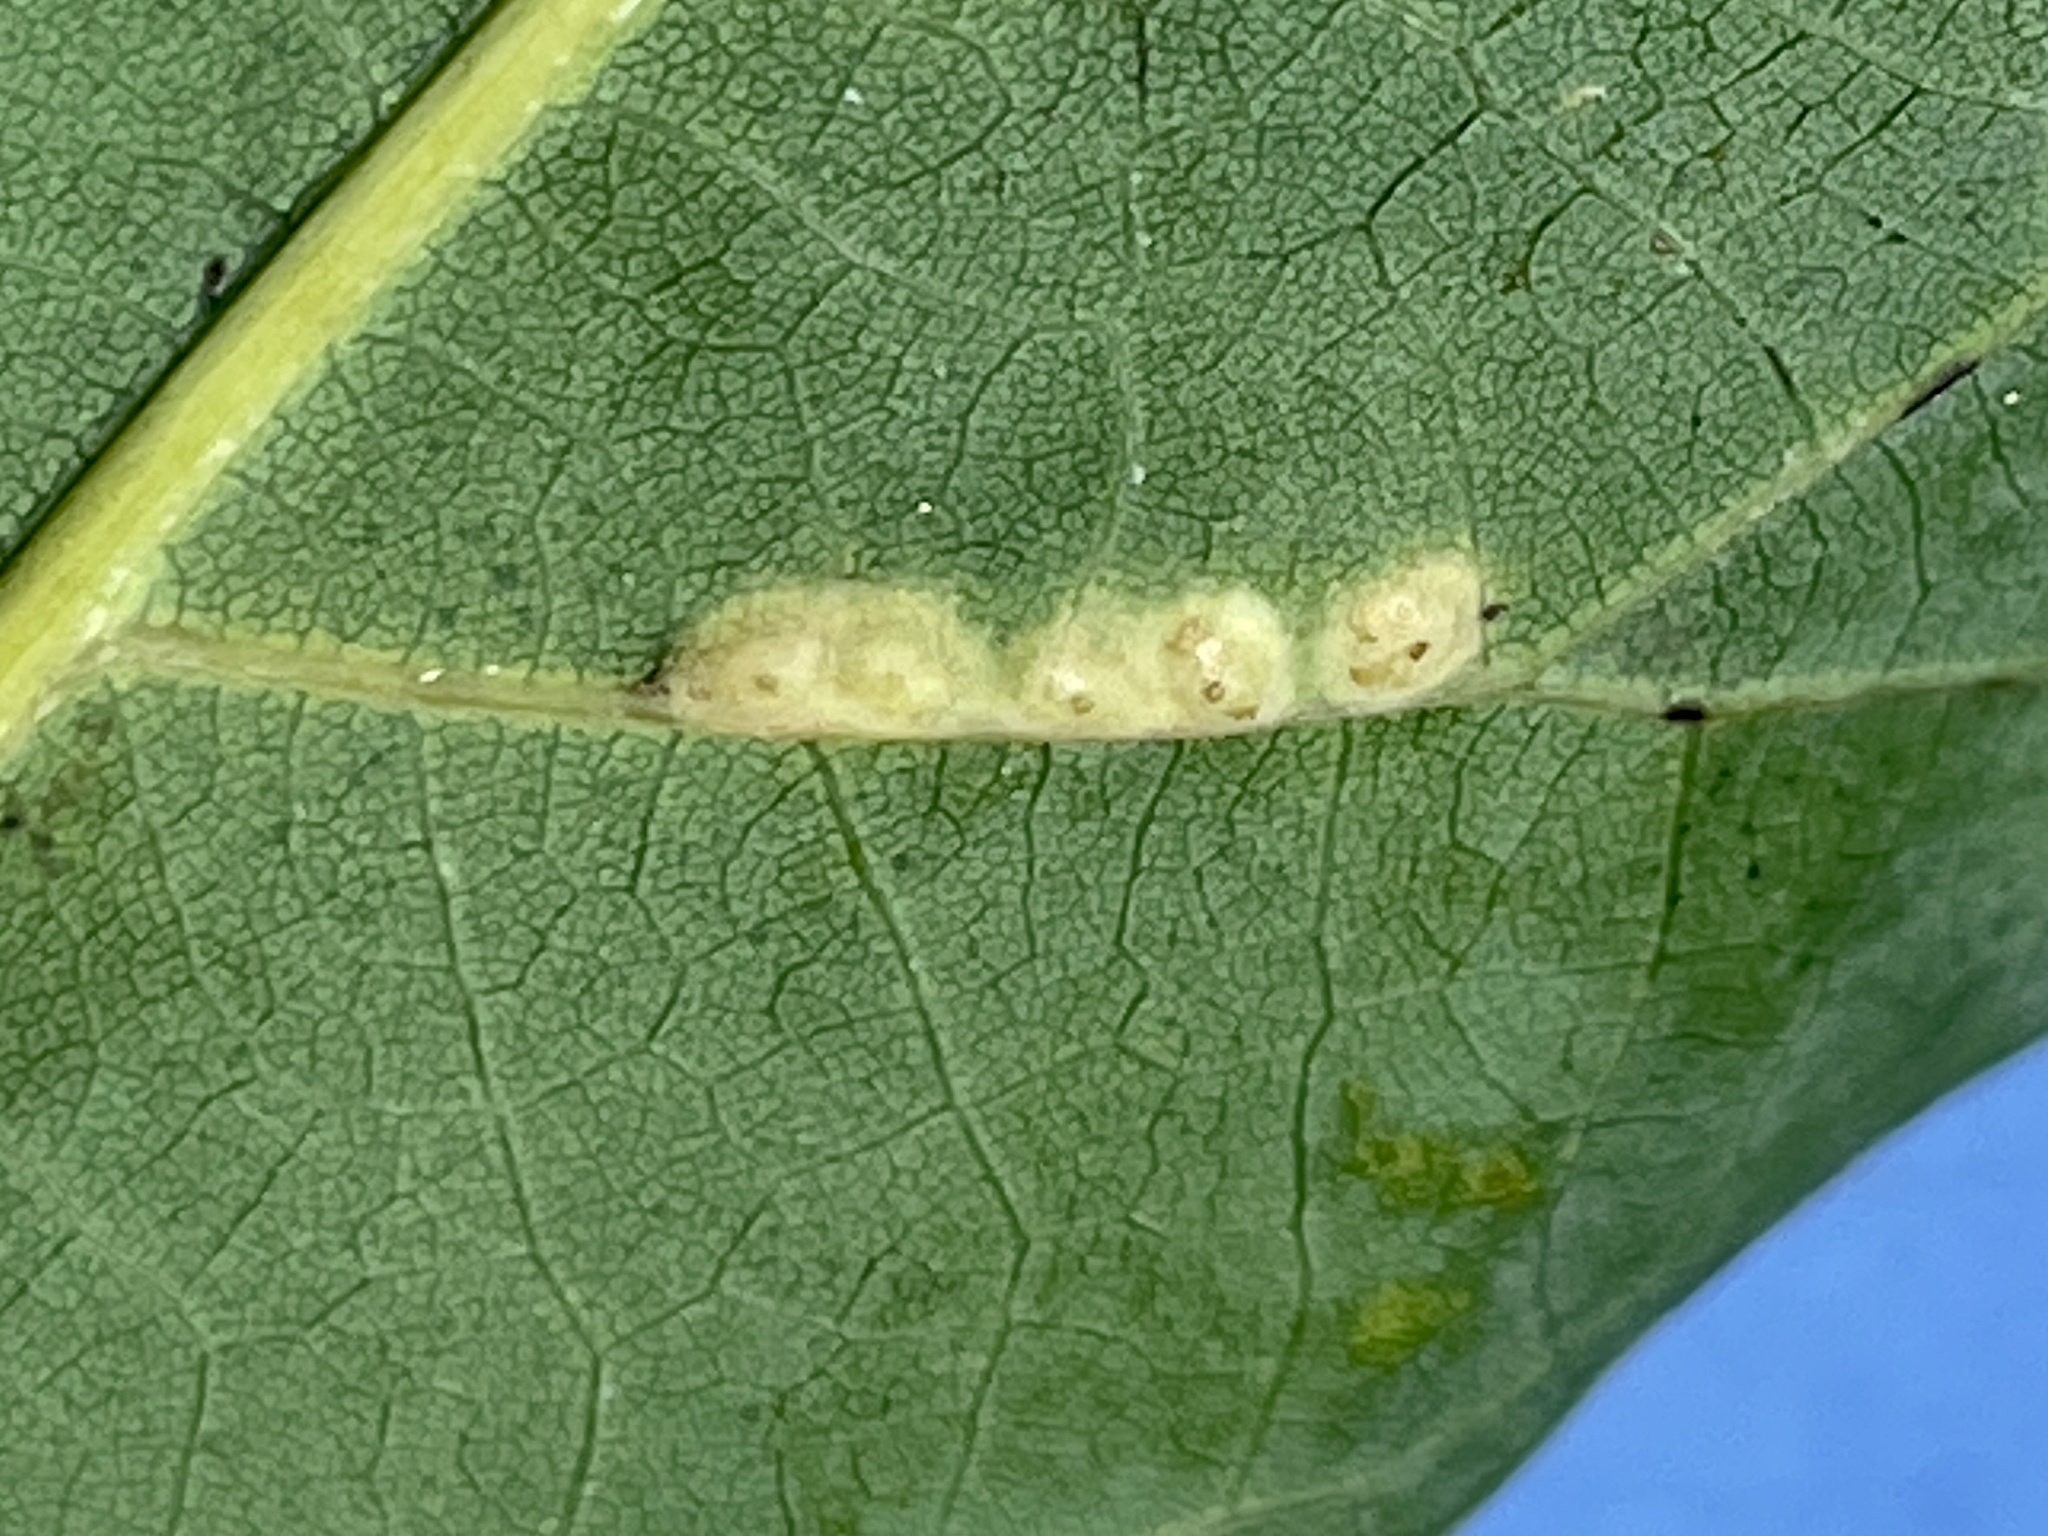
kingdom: Animalia
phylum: Arthropoda
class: Insecta
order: Hymenoptera
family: Cynipidae
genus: Neuroterus
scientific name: Neuroterus niger
